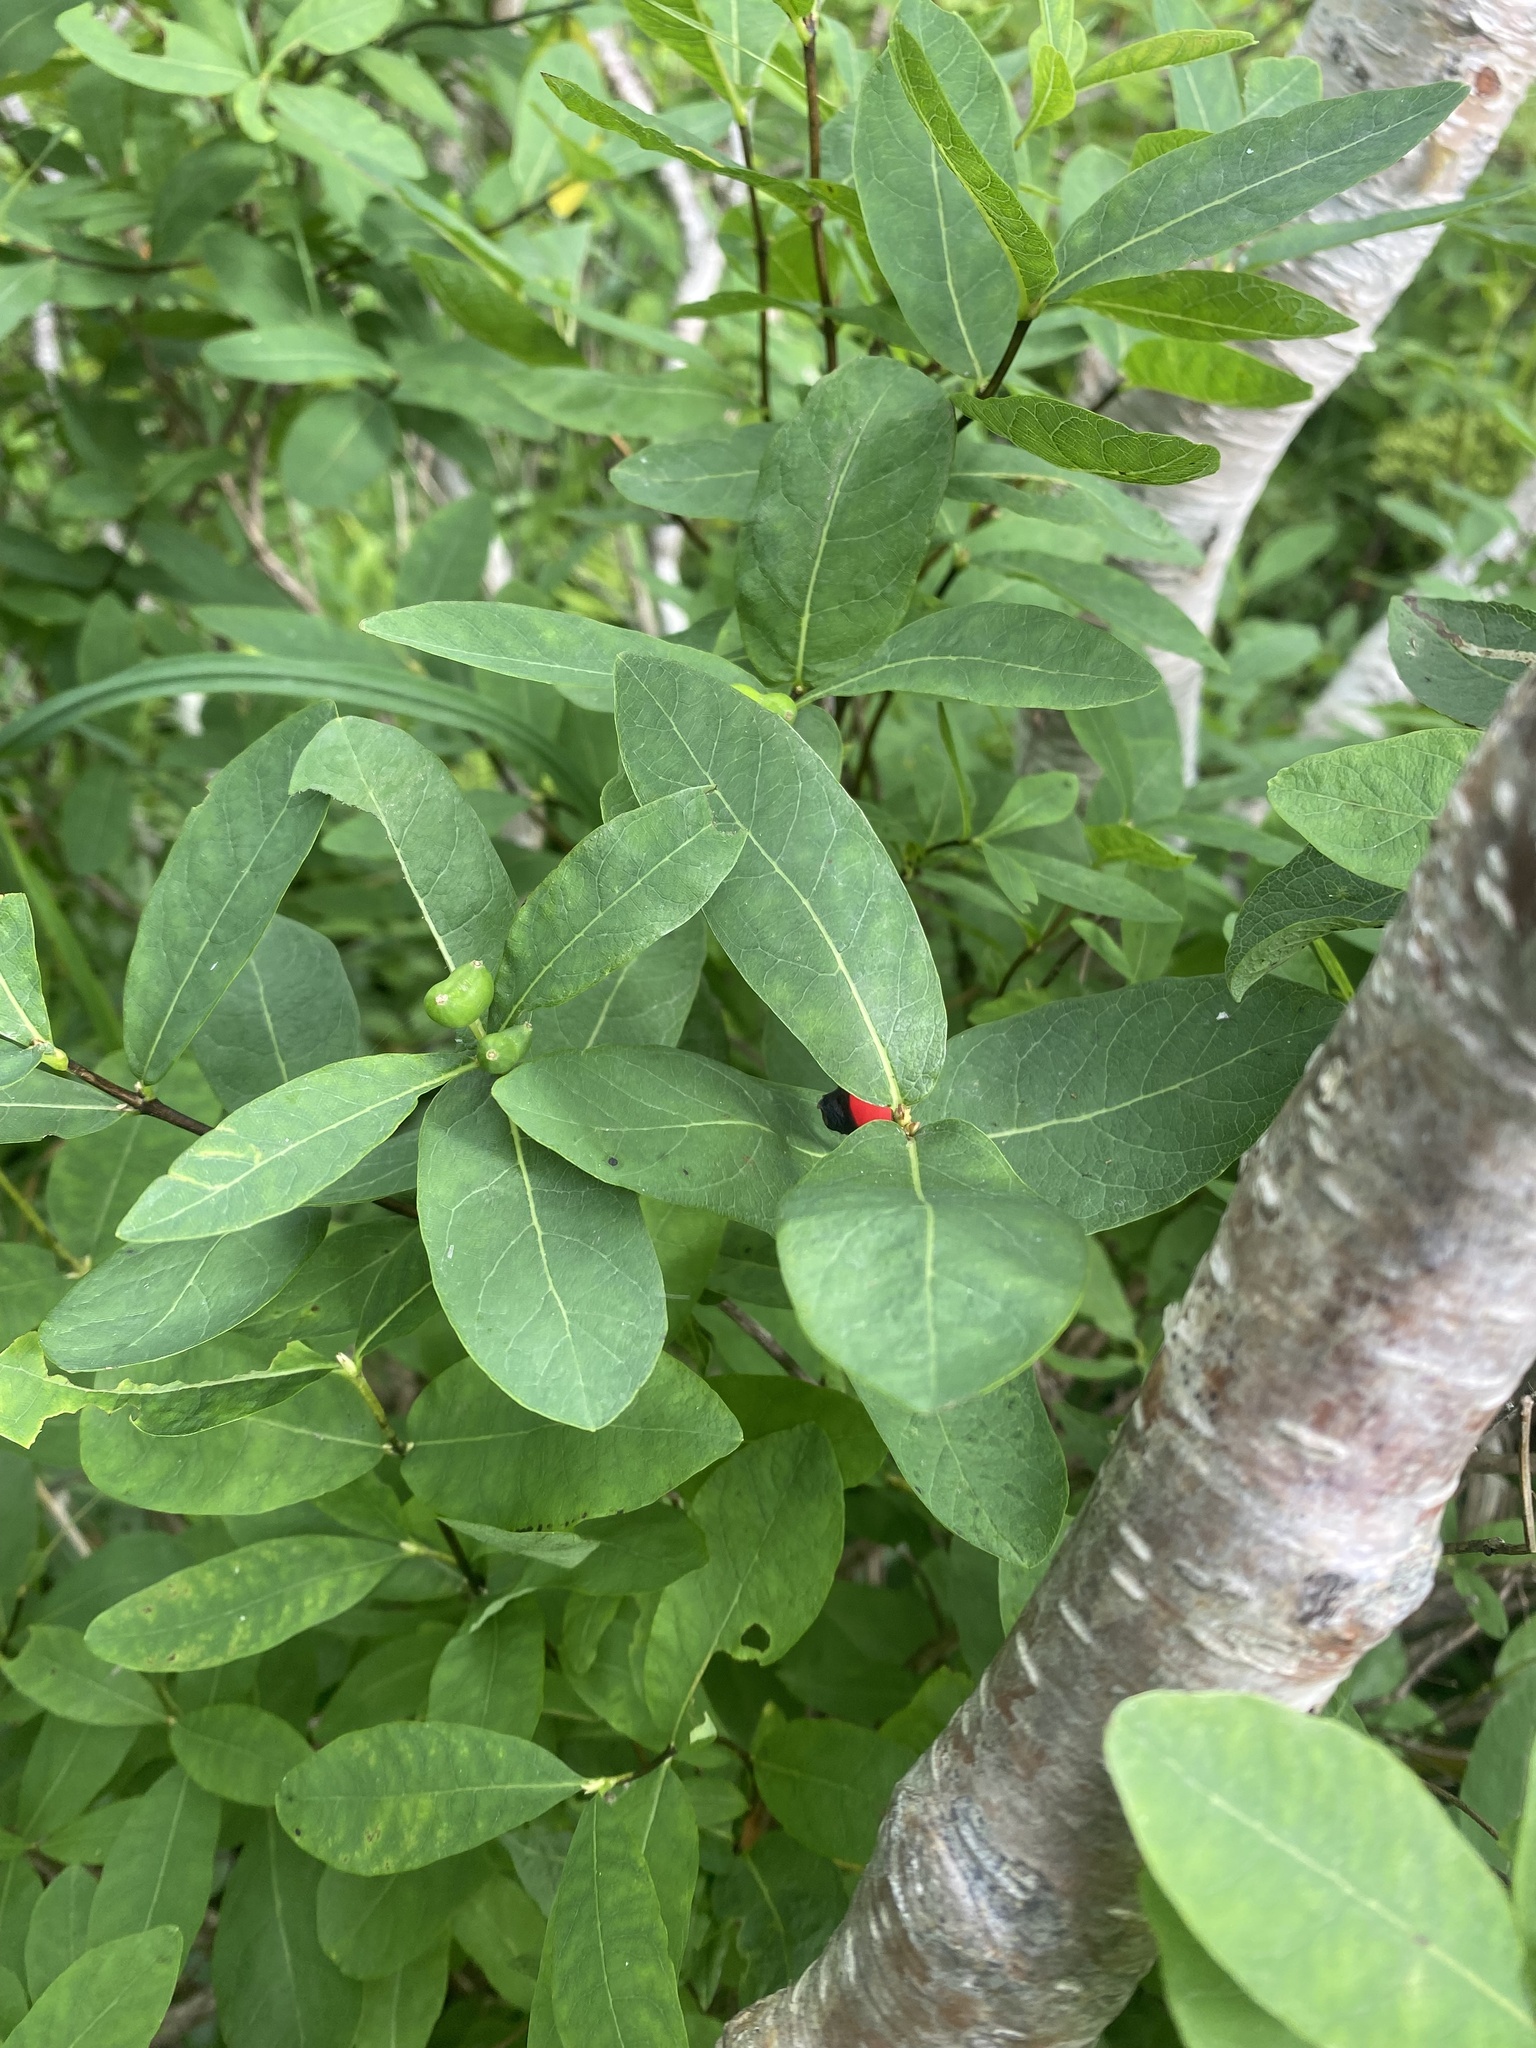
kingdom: Plantae
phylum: Tracheophyta
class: Magnoliopsida
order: Dipsacales
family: Caprifoliaceae
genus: Lonicera
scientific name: Lonicera chamissoi
